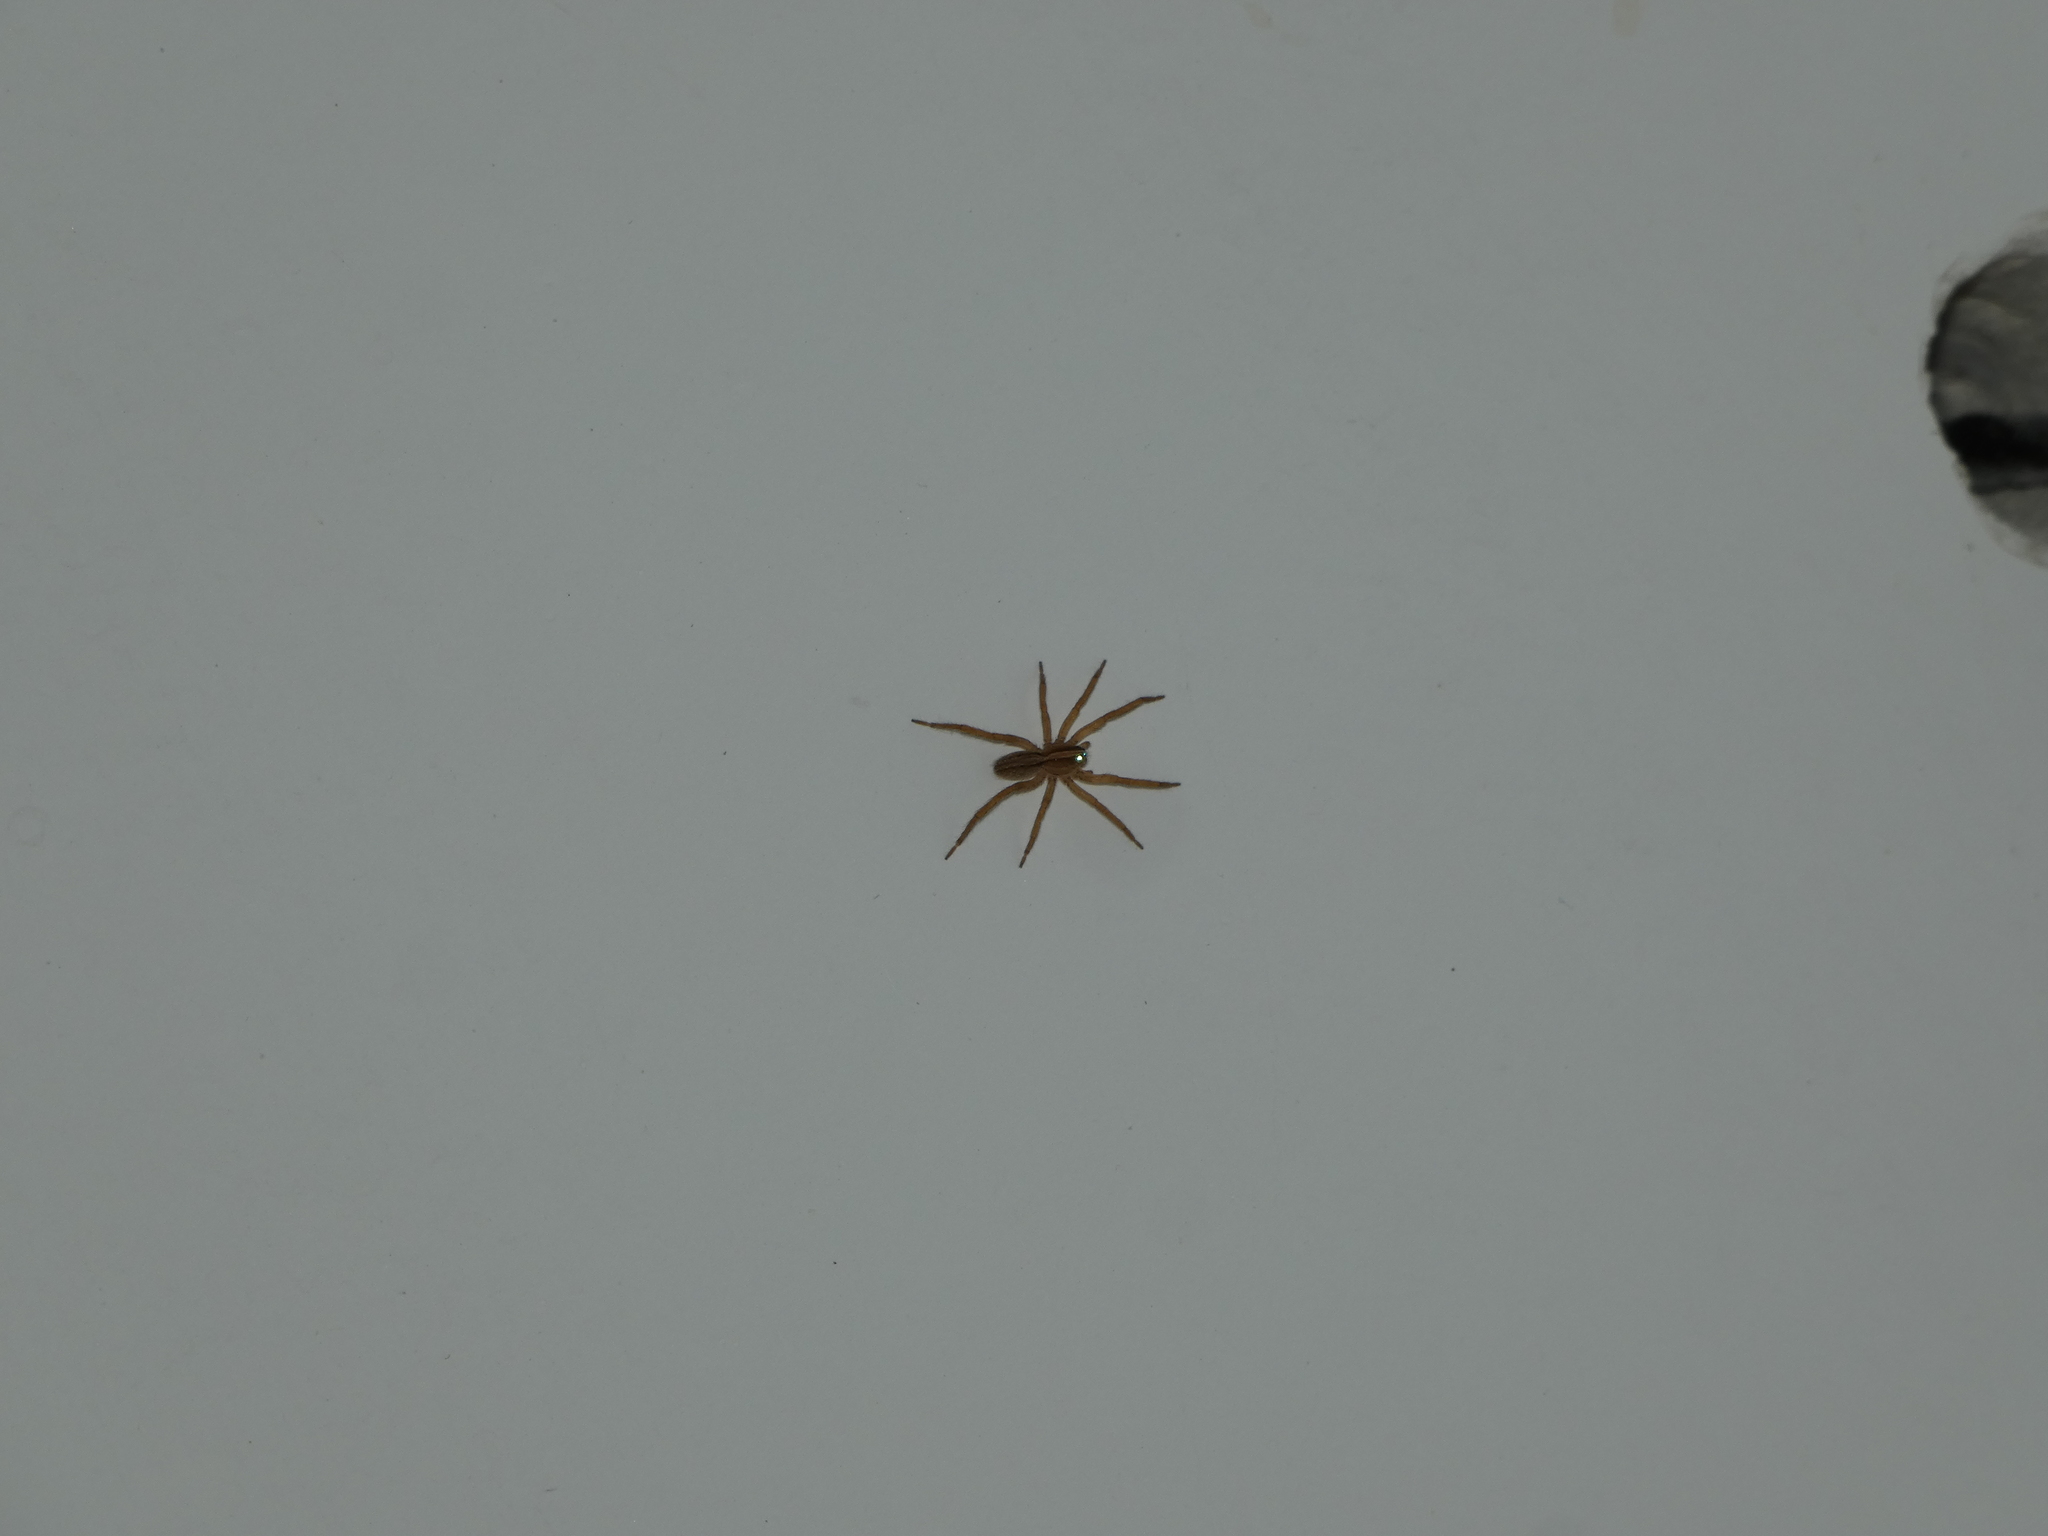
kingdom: Animalia
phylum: Arthropoda
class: Arachnida
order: Araneae
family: Ctenidae
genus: Parabatinga
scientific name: Parabatinga brevipes
